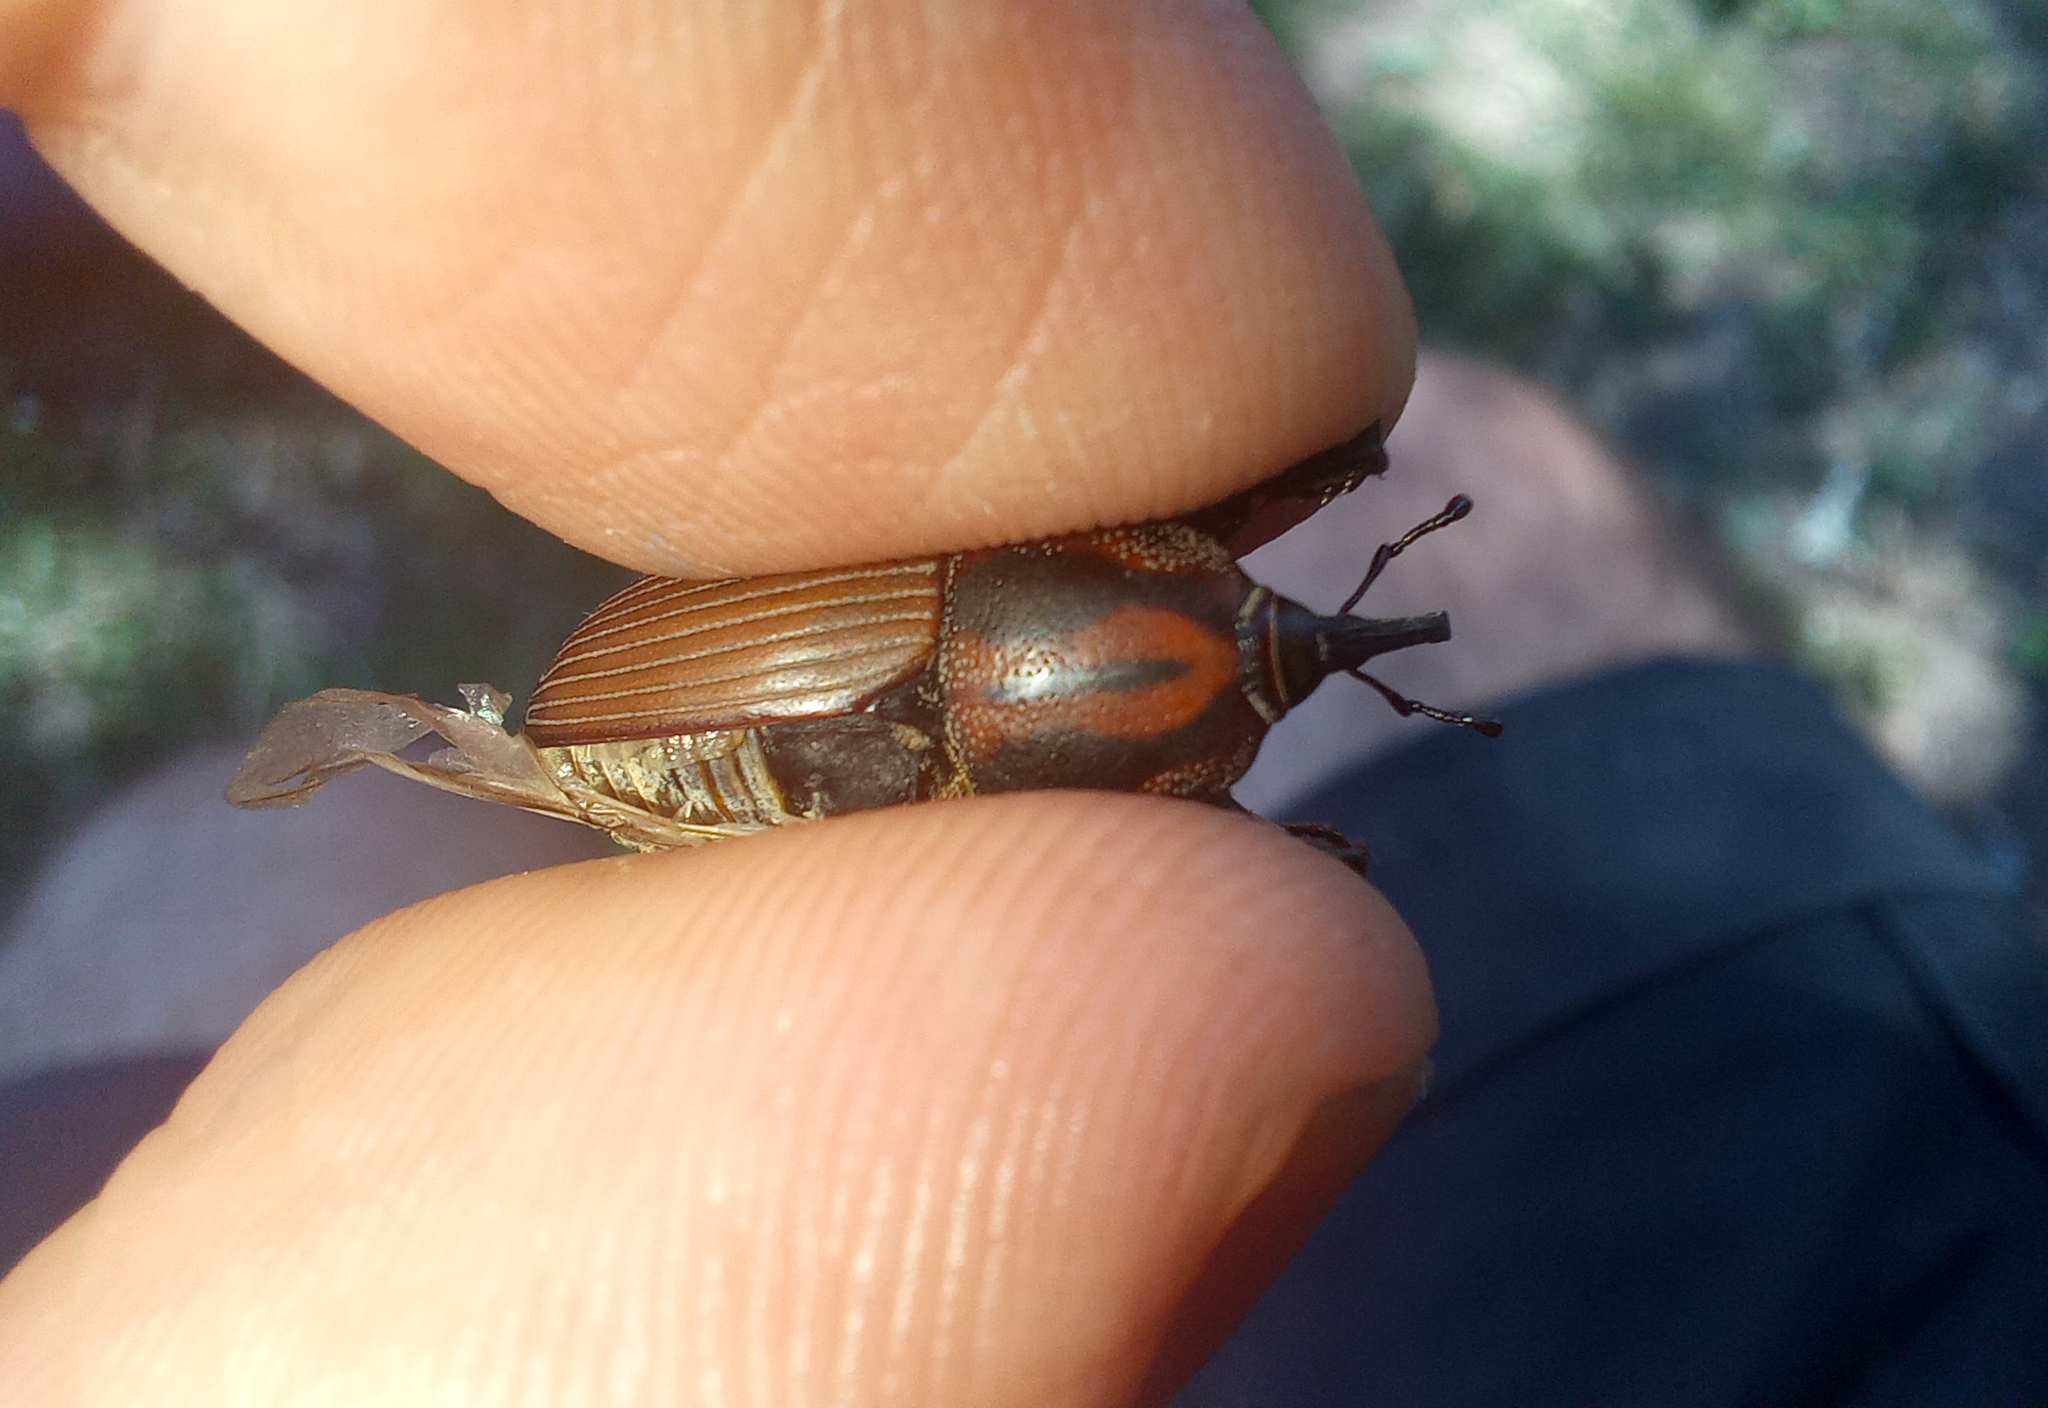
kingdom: Animalia
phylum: Arthropoda
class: Insecta
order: Coleoptera
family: Dryophthoridae
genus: Sphenophorus
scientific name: Sphenophorus
